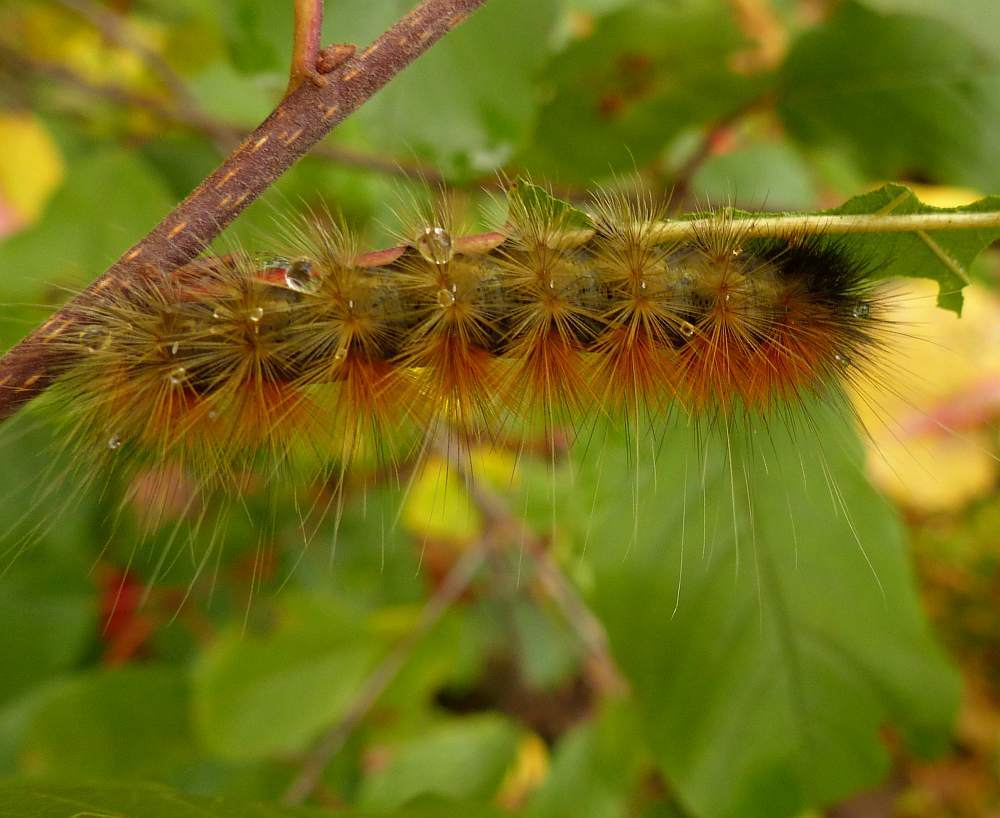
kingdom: Animalia
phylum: Arthropoda
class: Insecta
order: Lepidoptera
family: Erebidae
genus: Spilosoma
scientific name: Spilosoma virginica
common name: Virginia tiger moth
